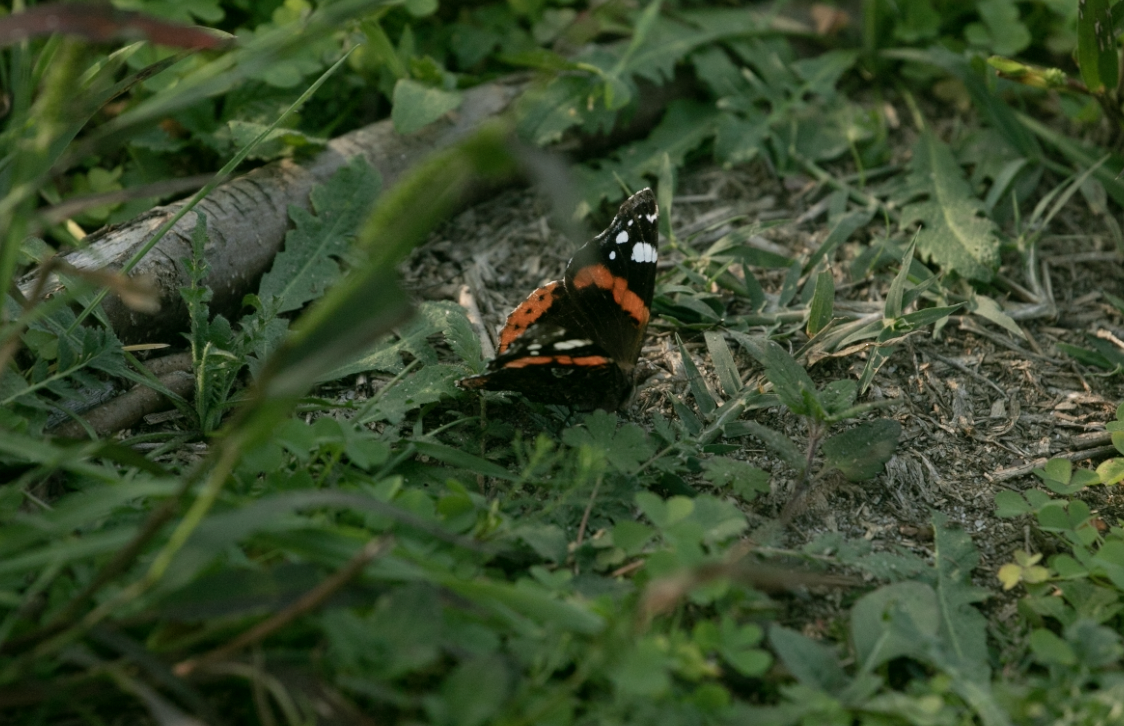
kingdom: Animalia
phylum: Arthropoda
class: Insecta
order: Lepidoptera
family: Nymphalidae
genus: Vanessa
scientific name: Vanessa atalanta
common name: Red admiral
